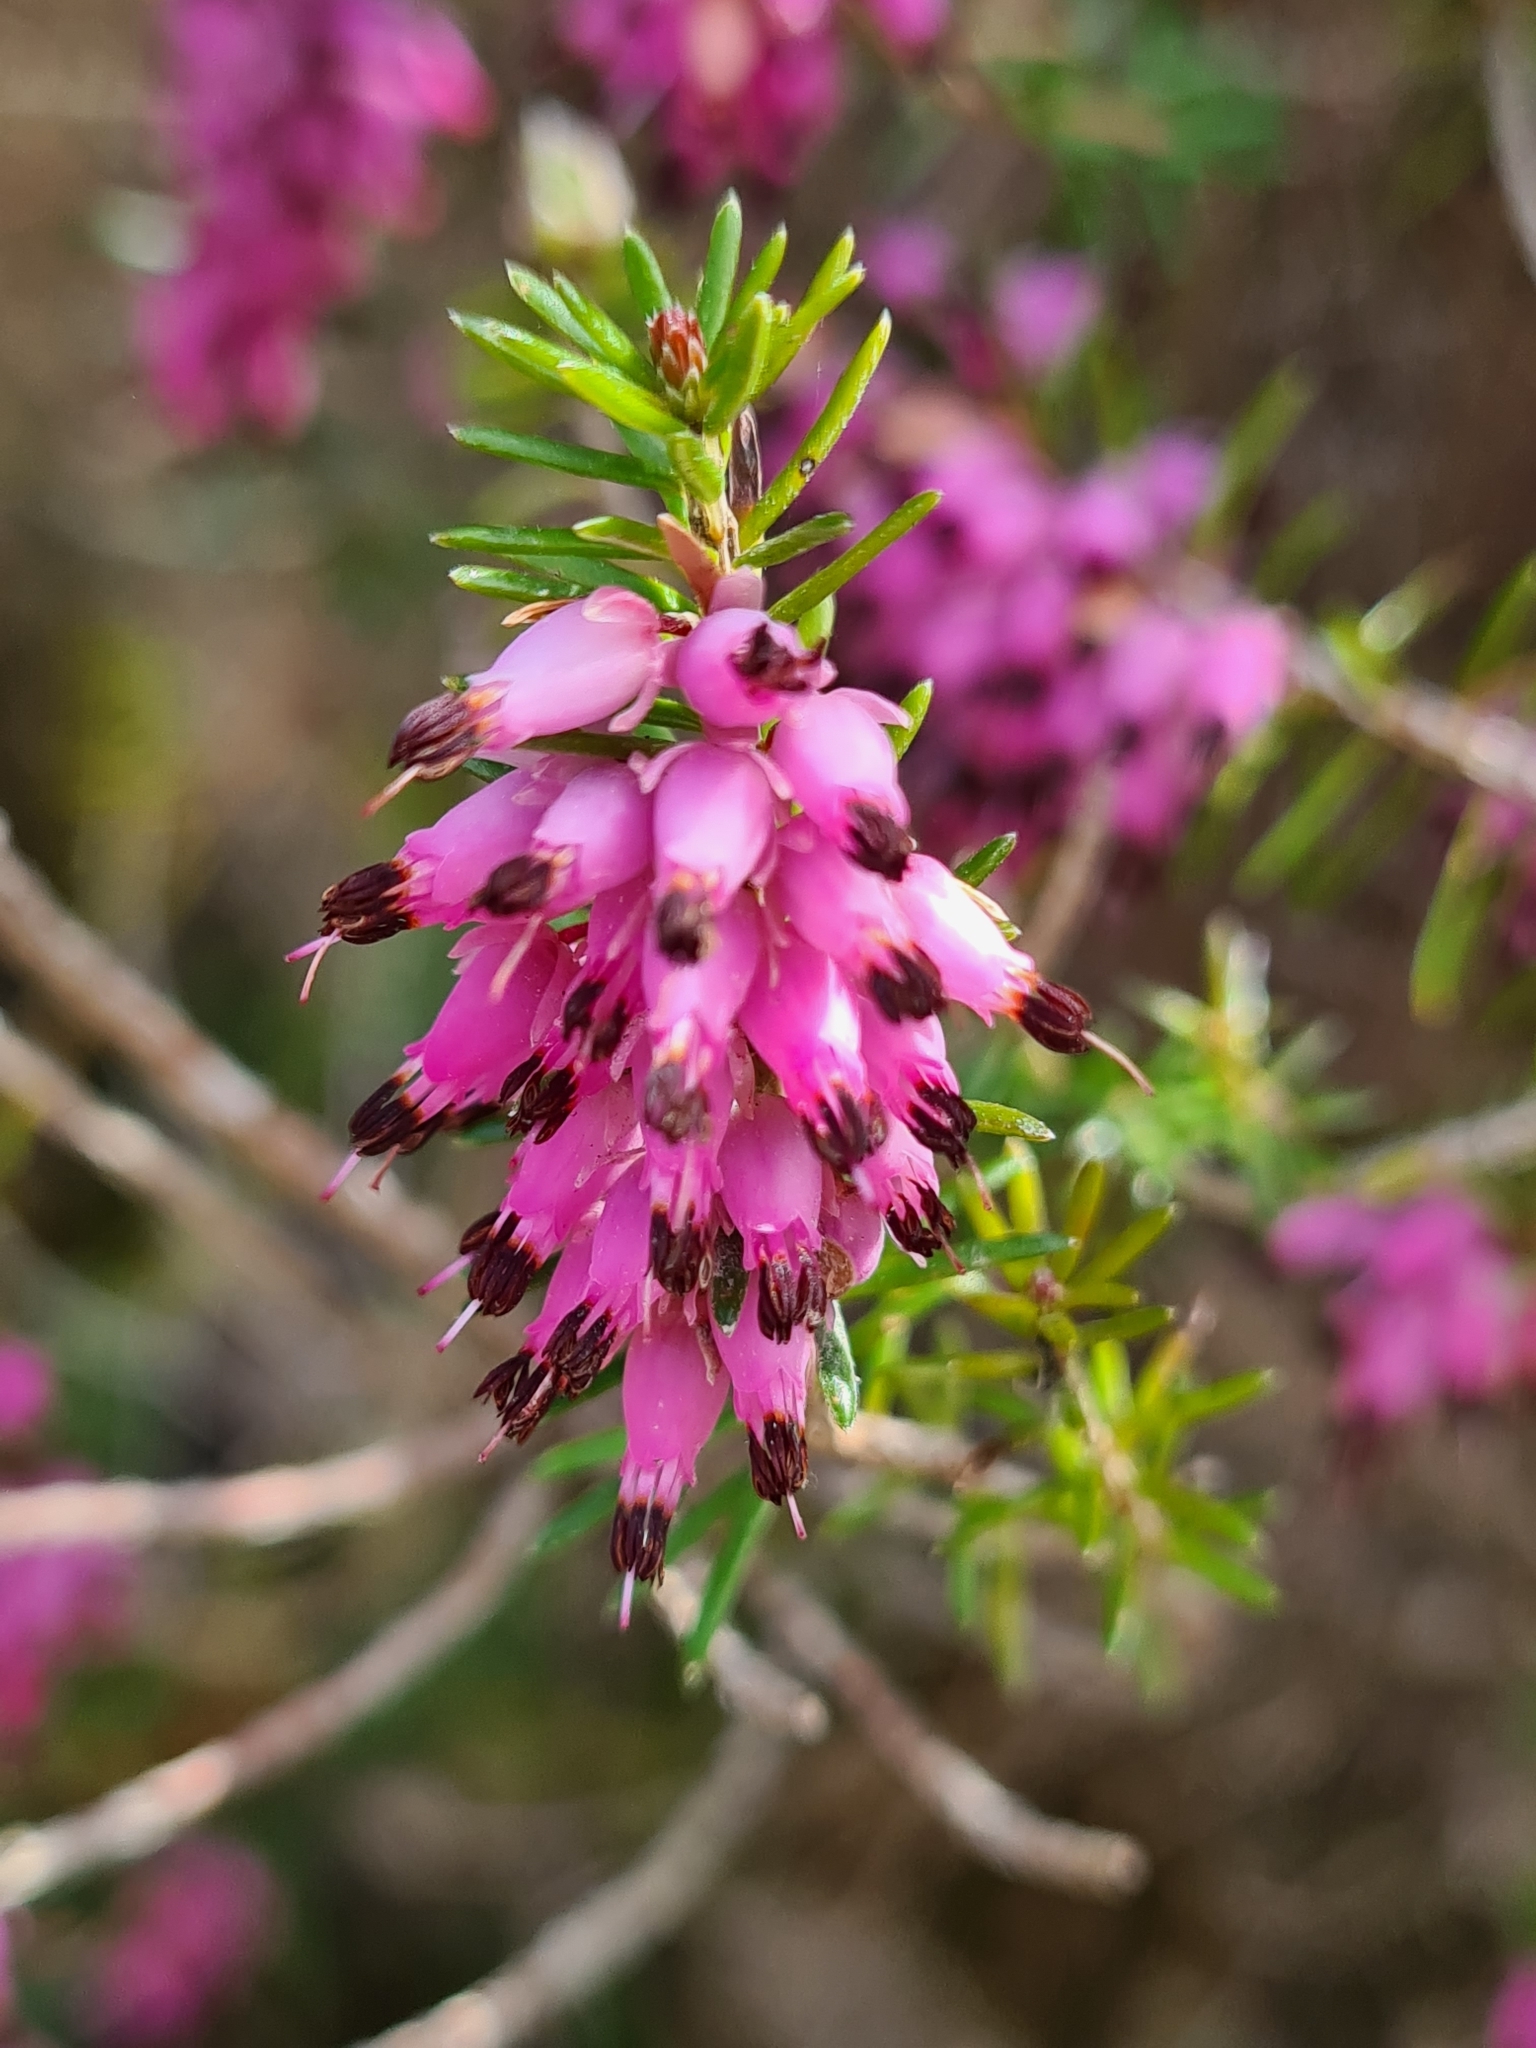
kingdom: Plantae
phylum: Tracheophyta
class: Magnoliopsida
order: Ericales
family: Ericaceae
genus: Erica
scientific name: Erica carnea
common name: Winter heath
